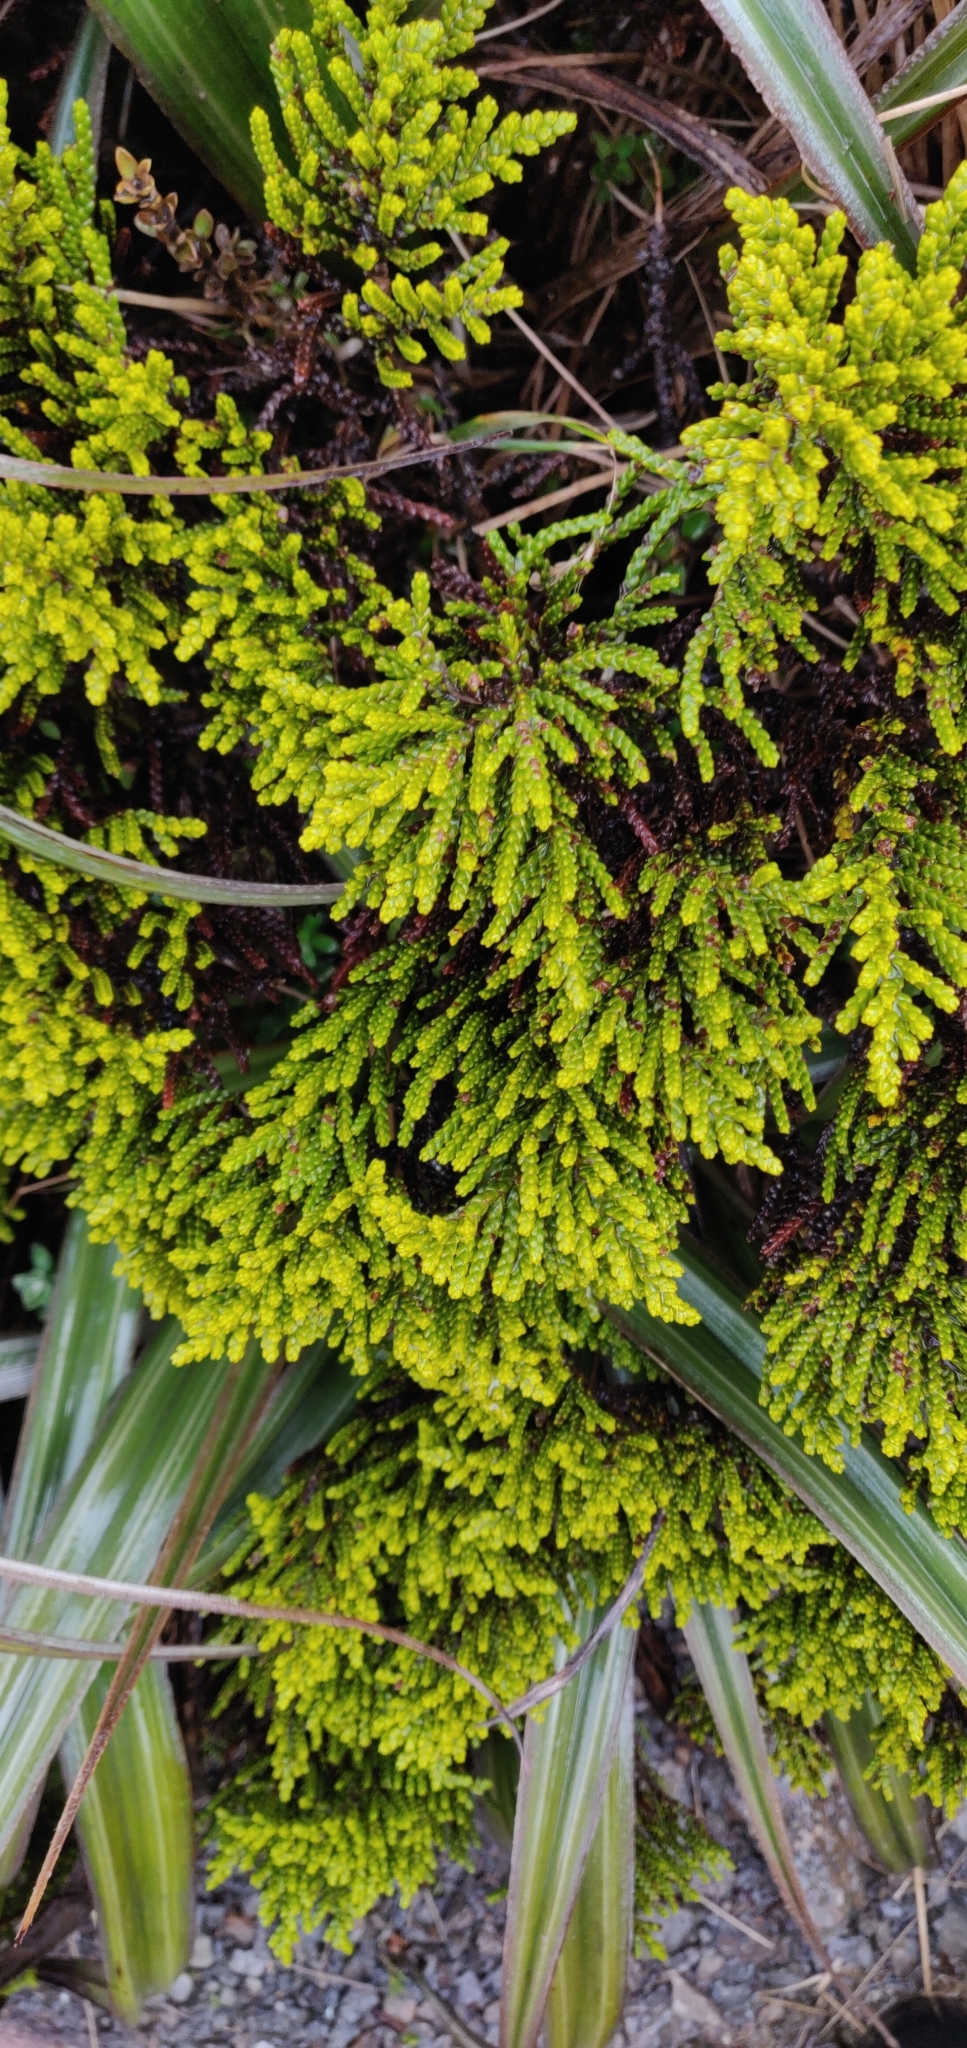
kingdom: Plantae
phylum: Tracheophyta
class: Pinopsida
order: Pinales
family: Podocarpaceae
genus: Halocarpus
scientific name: Halocarpus biformis
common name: Alpine tarwood
